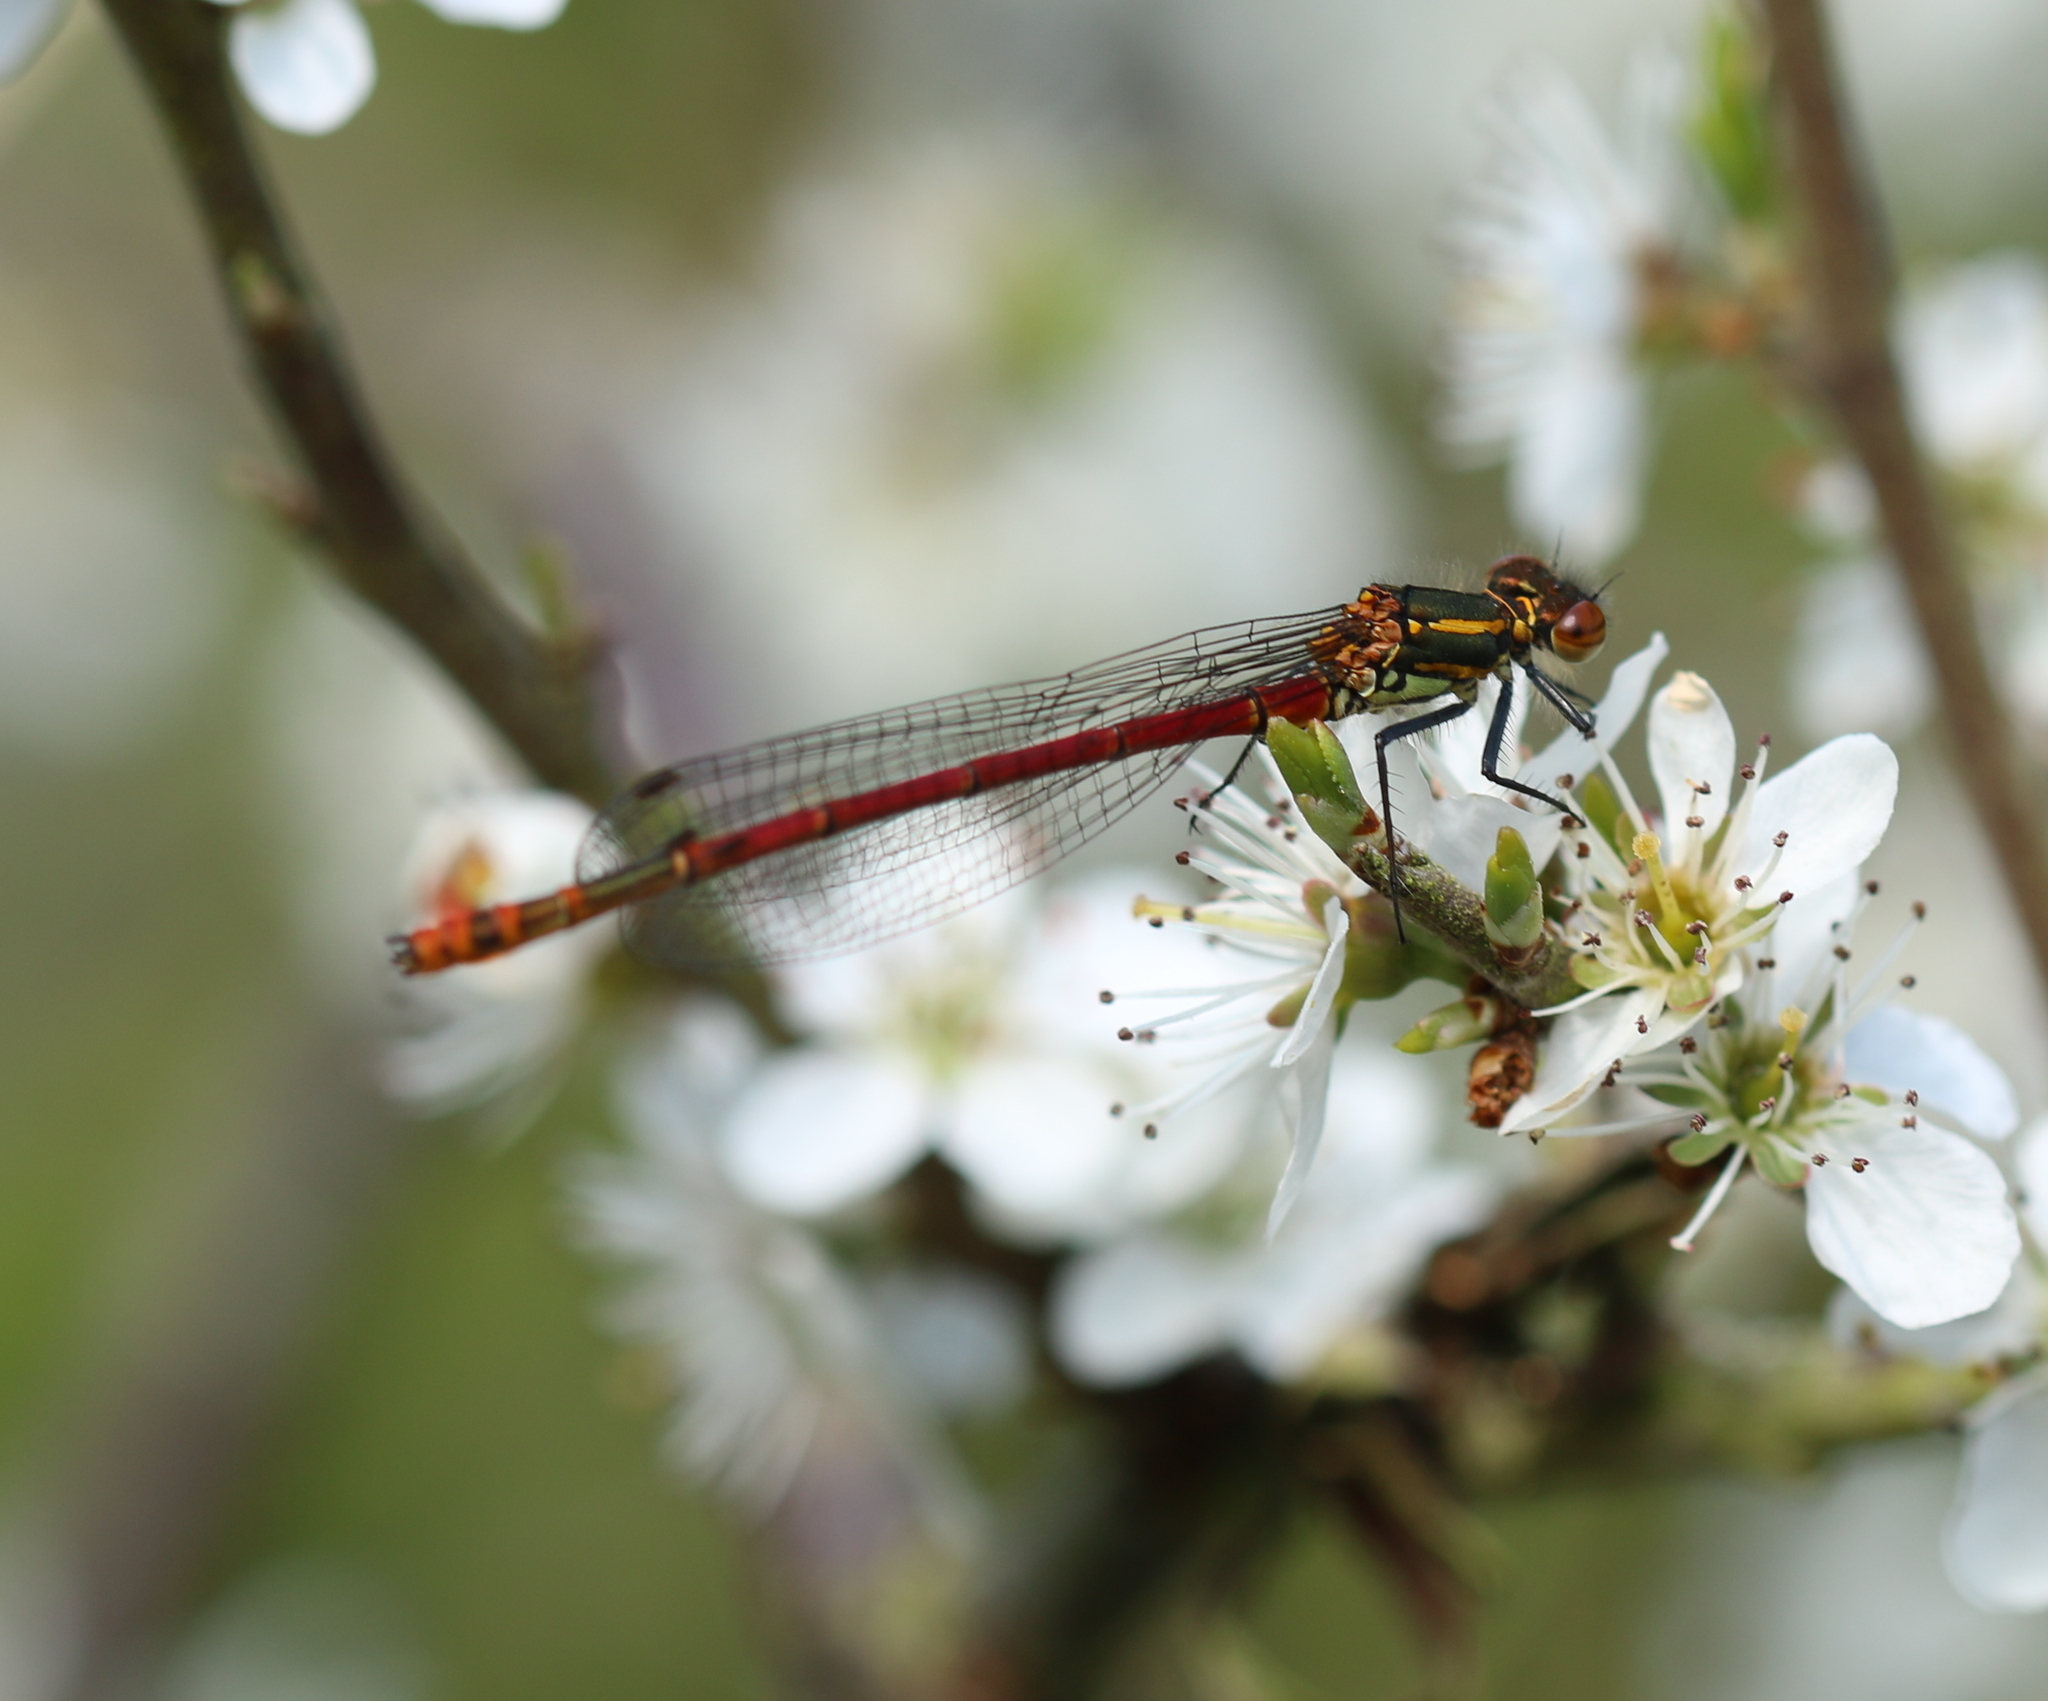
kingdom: Animalia
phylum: Arthropoda
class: Insecta
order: Odonata
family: Coenagrionidae
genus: Pyrrhosoma
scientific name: Pyrrhosoma nymphula
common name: Large red damsel
